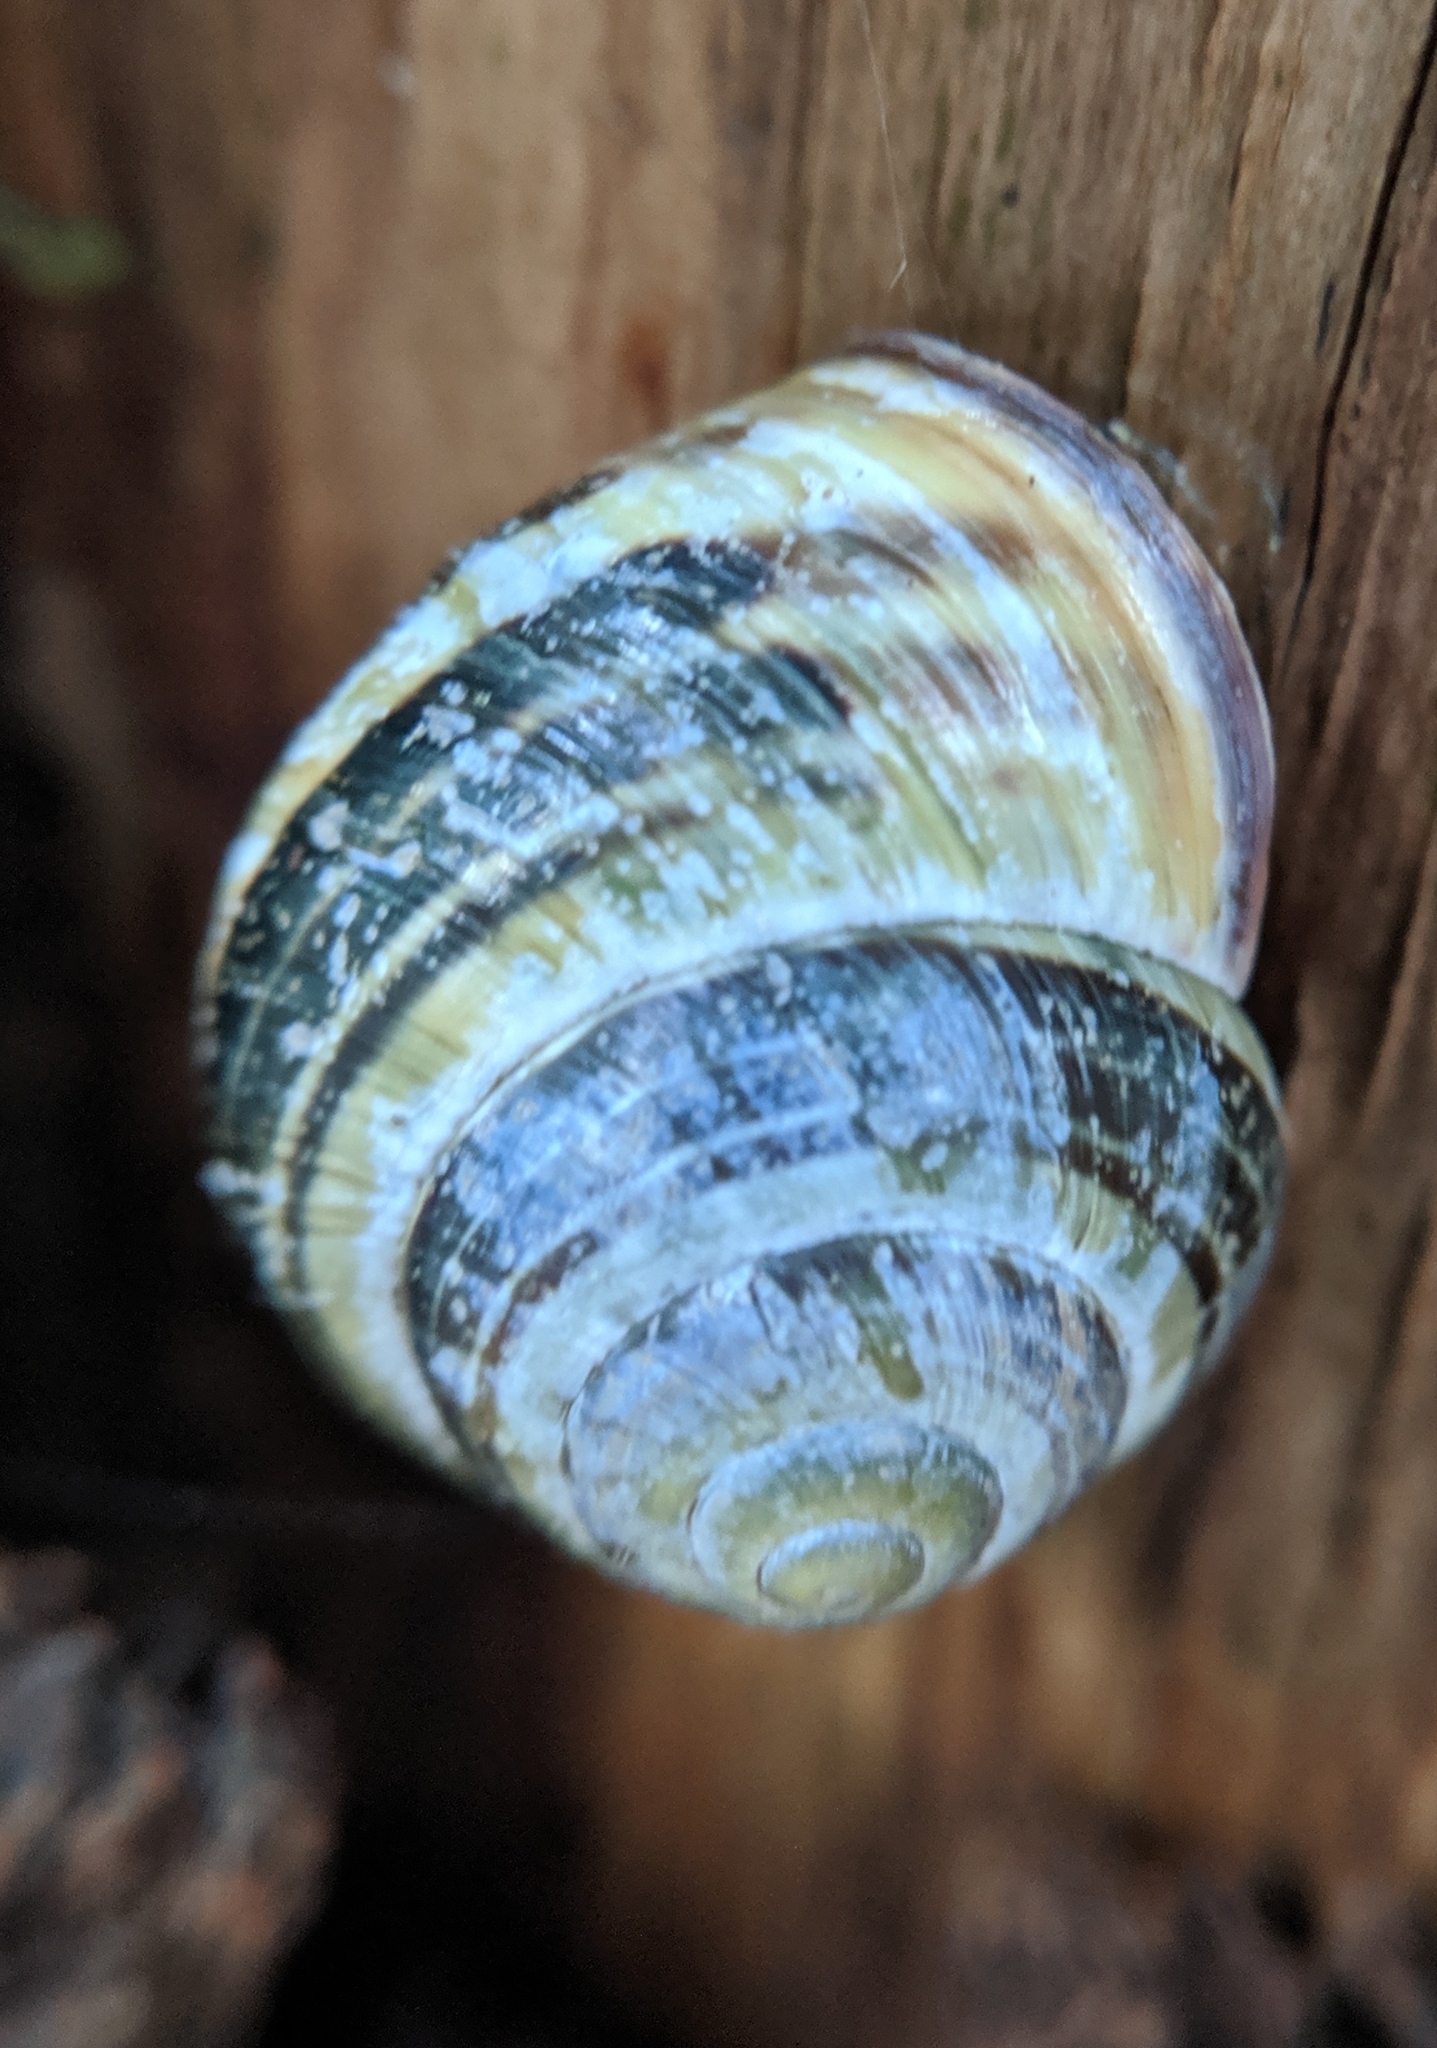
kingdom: Animalia
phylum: Mollusca
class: Gastropoda
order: Stylommatophora
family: Helicidae
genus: Cepaea
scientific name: Cepaea nemoralis
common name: Grovesnail
